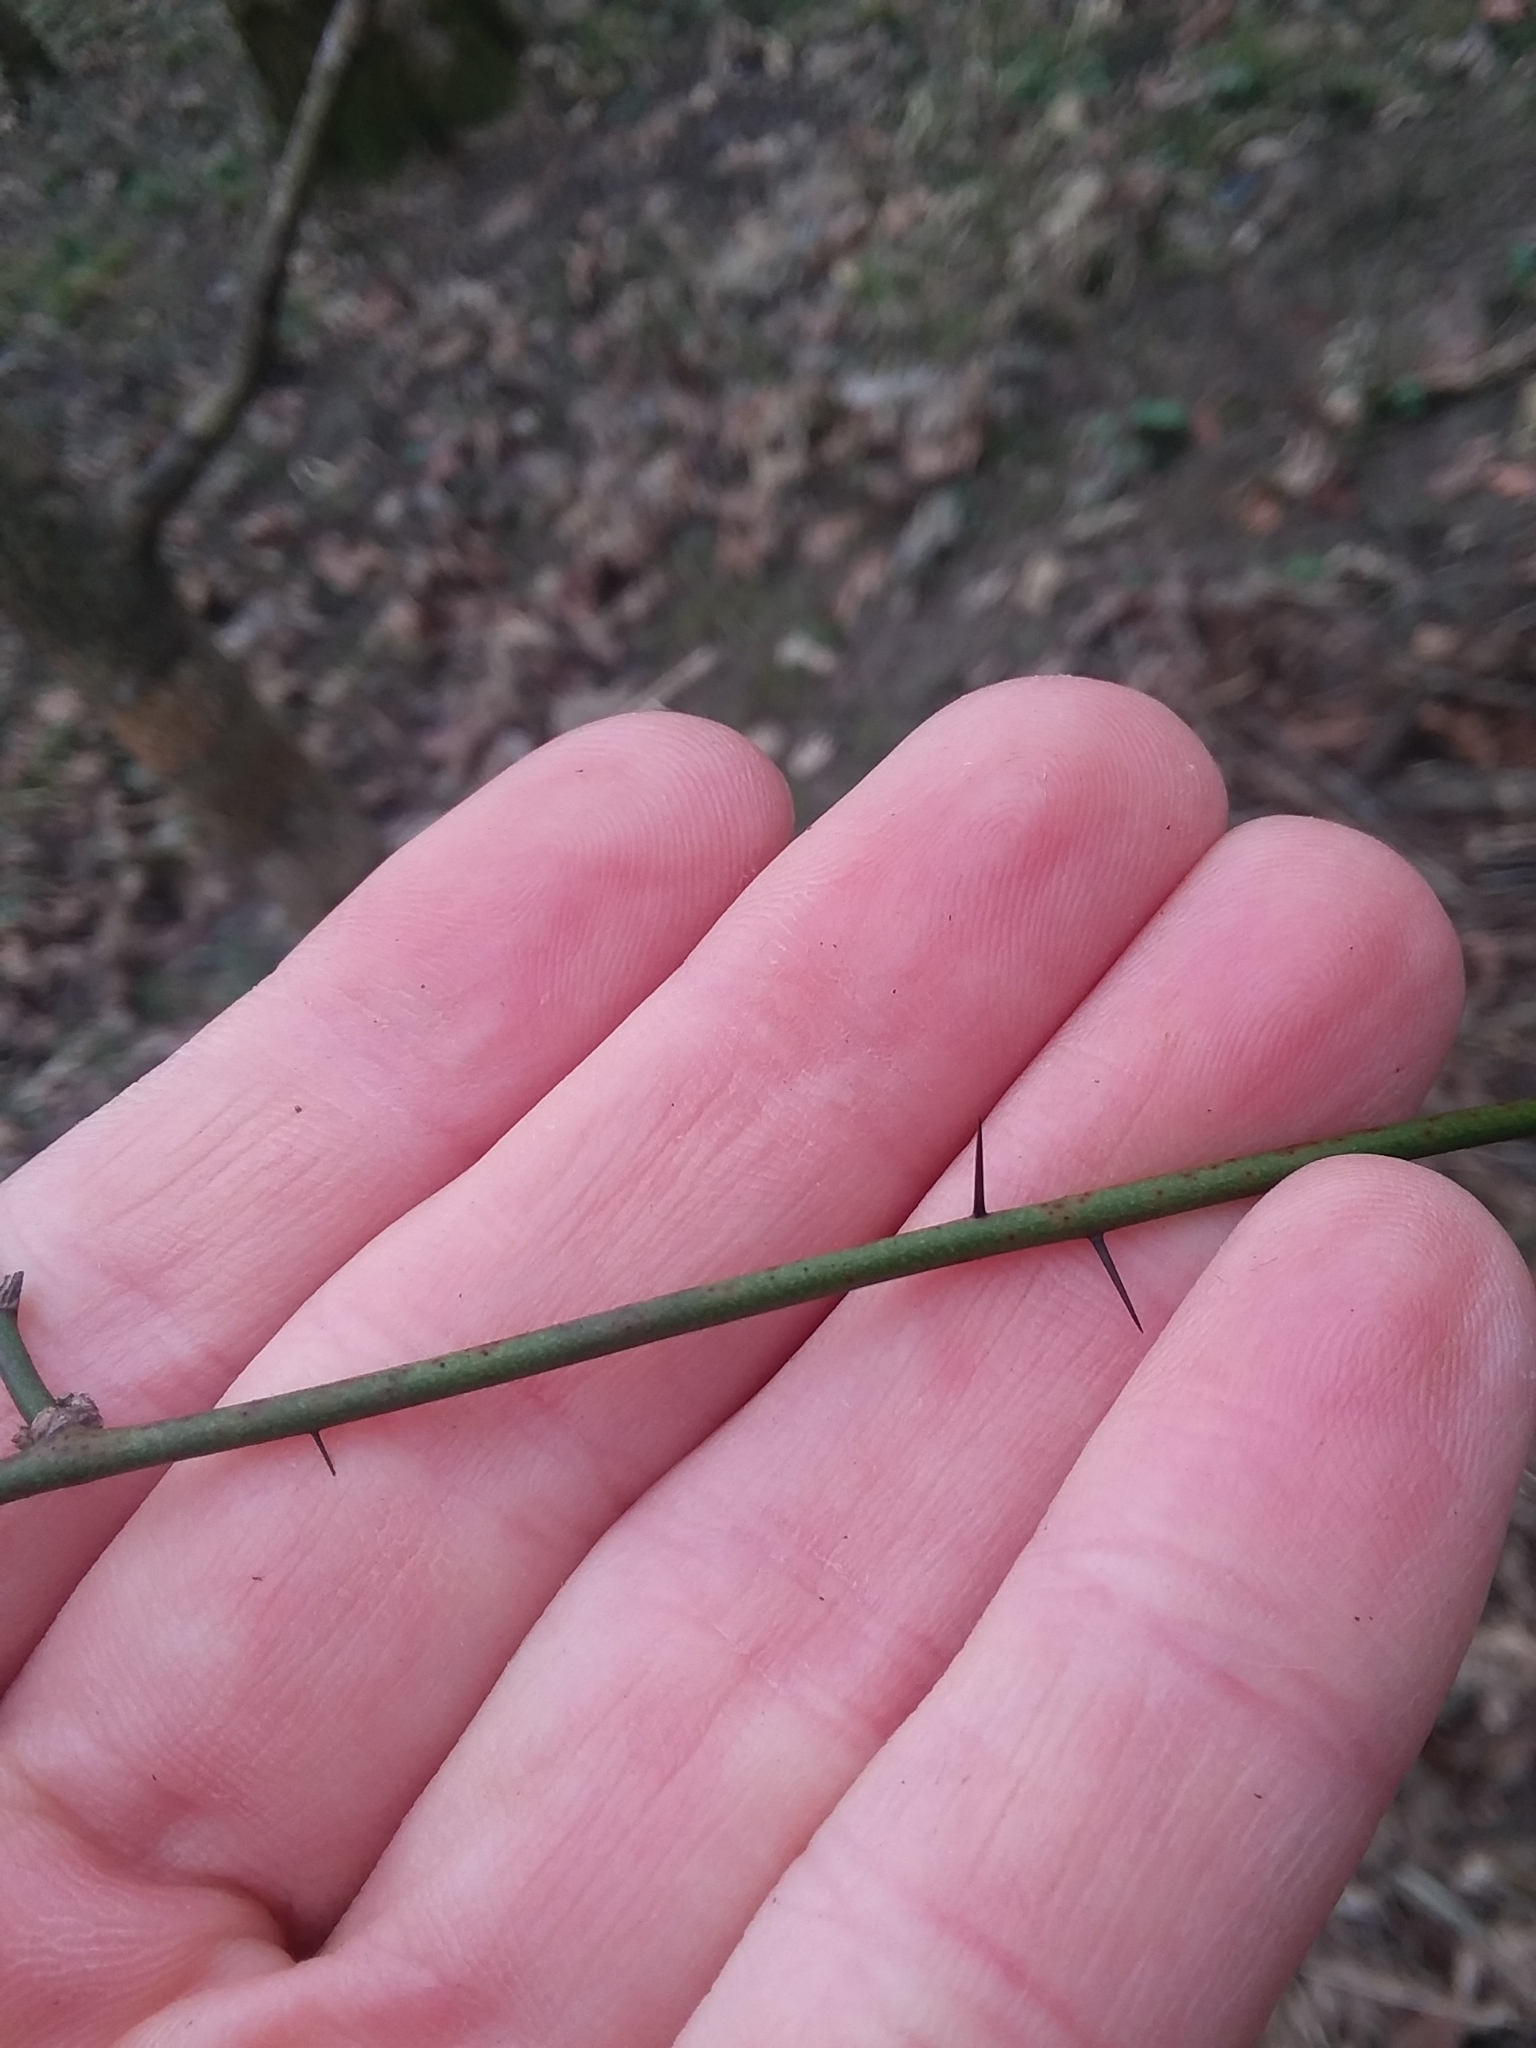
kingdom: Plantae
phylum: Tracheophyta
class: Liliopsida
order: Liliales
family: Smilacaceae
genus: Smilax
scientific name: Smilax tamnoides
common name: Hellfetter
